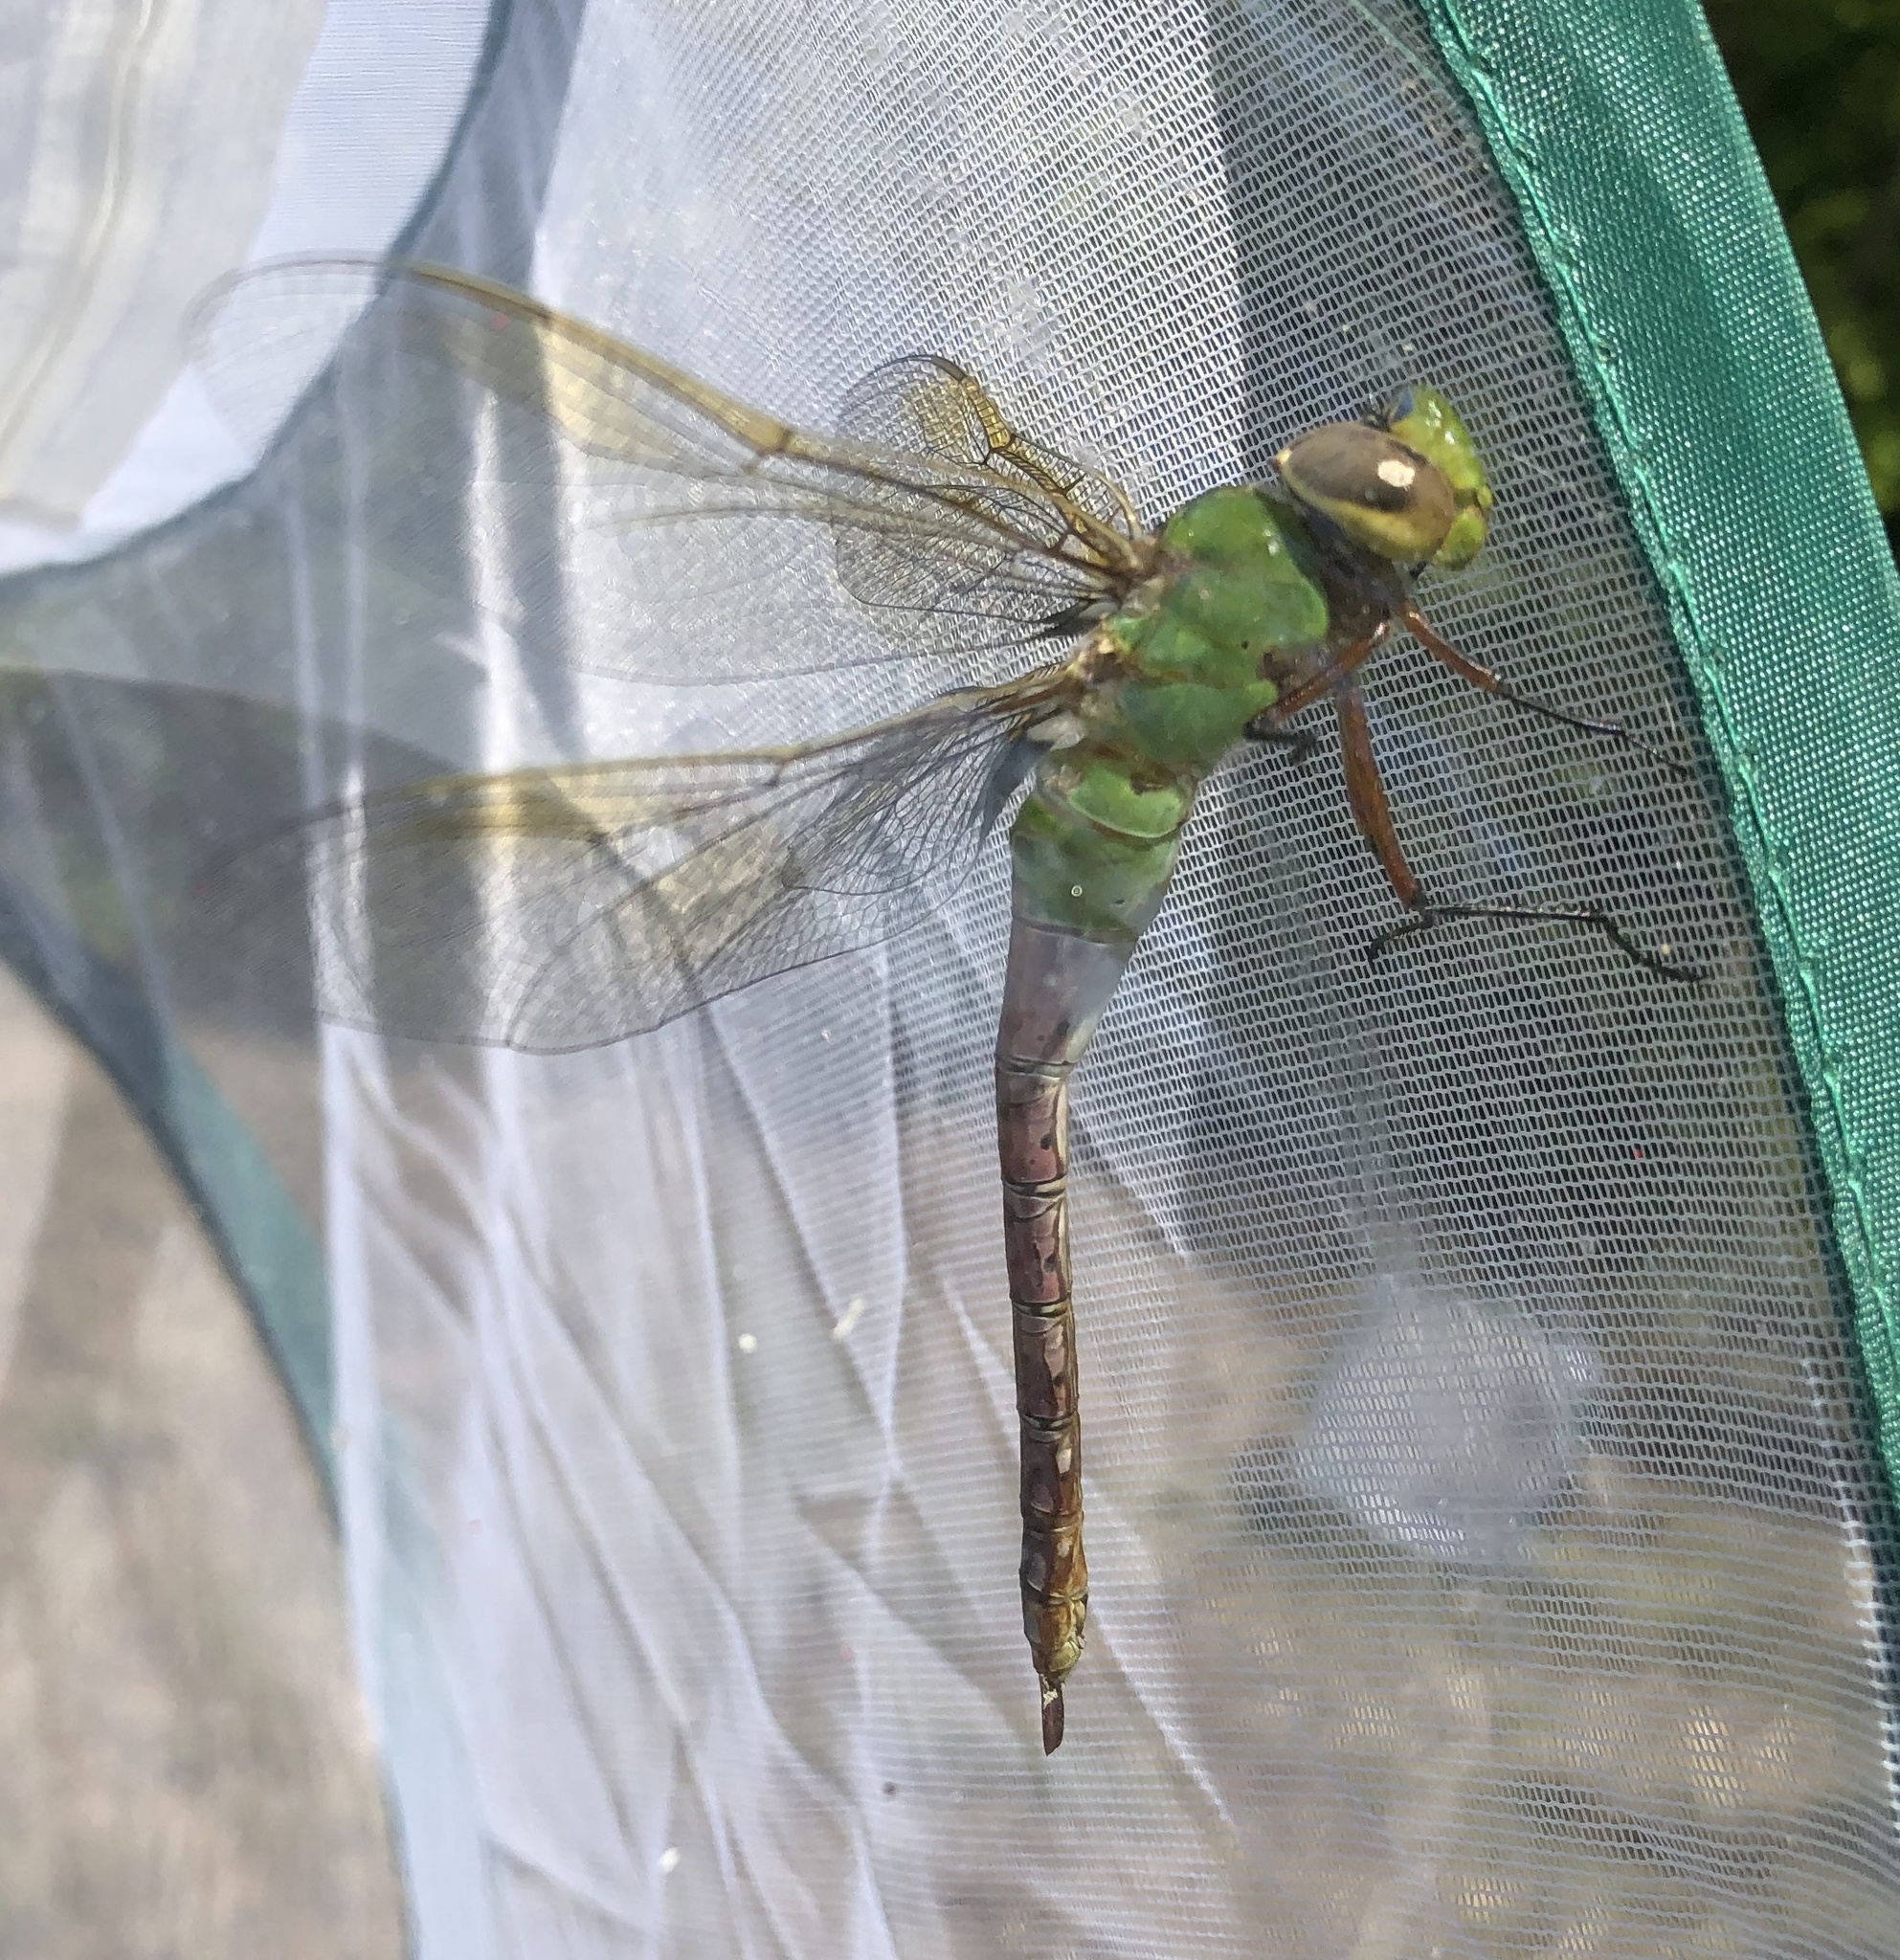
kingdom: Animalia
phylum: Arthropoda
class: Insecta
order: Odonata
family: Aeshnidae
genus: Anax
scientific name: Anax junius
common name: Common green darner
